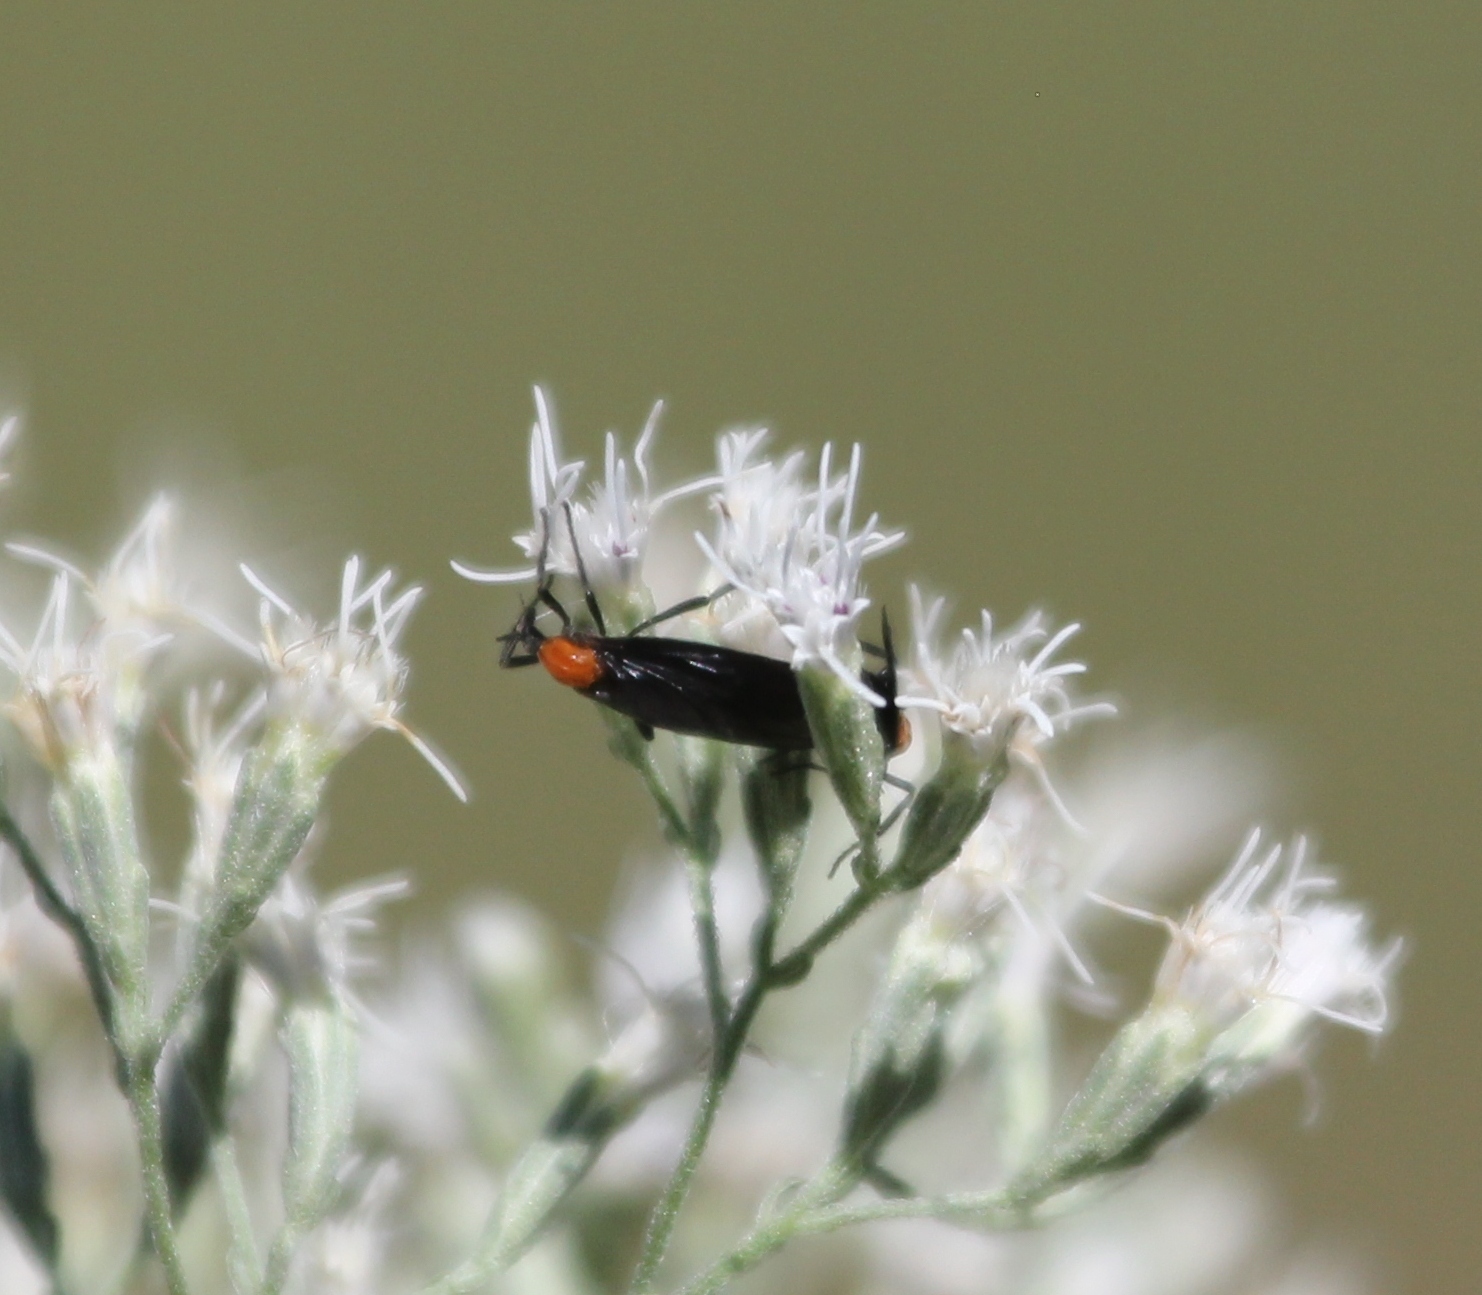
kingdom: Animalia
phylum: Arthropoda
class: Insecta
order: Diptera
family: Bibionidae
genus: Plecia
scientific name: Plecia nearctica
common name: March fly
